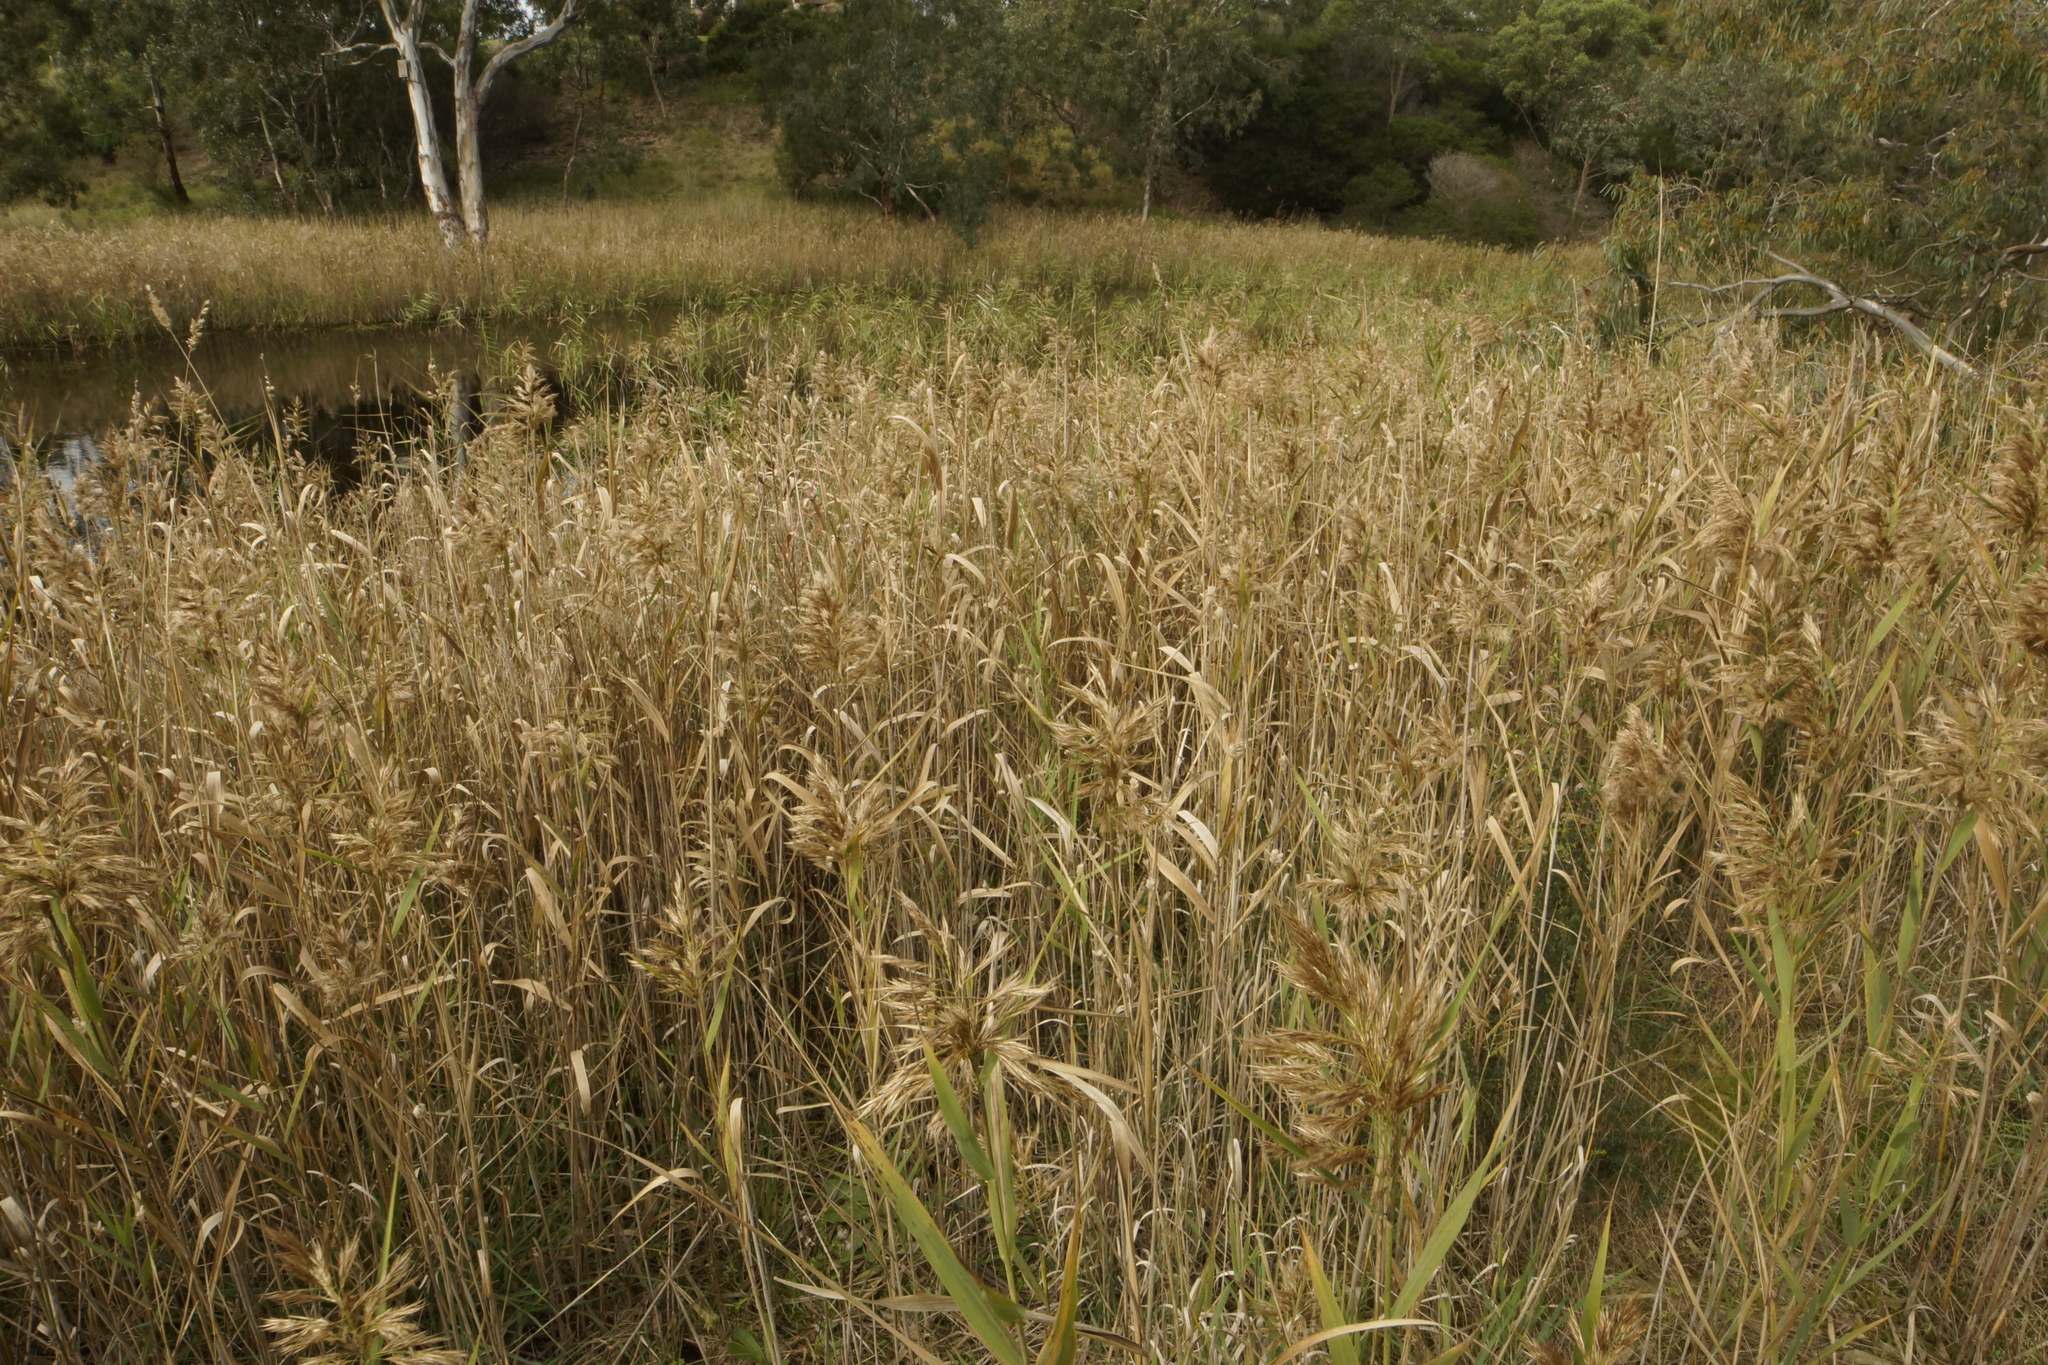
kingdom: Plantae
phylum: Tracheophyta
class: Liliopsida
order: Poales
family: Poaceae
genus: Phragmites
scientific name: Phragmites australis
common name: Common reed
